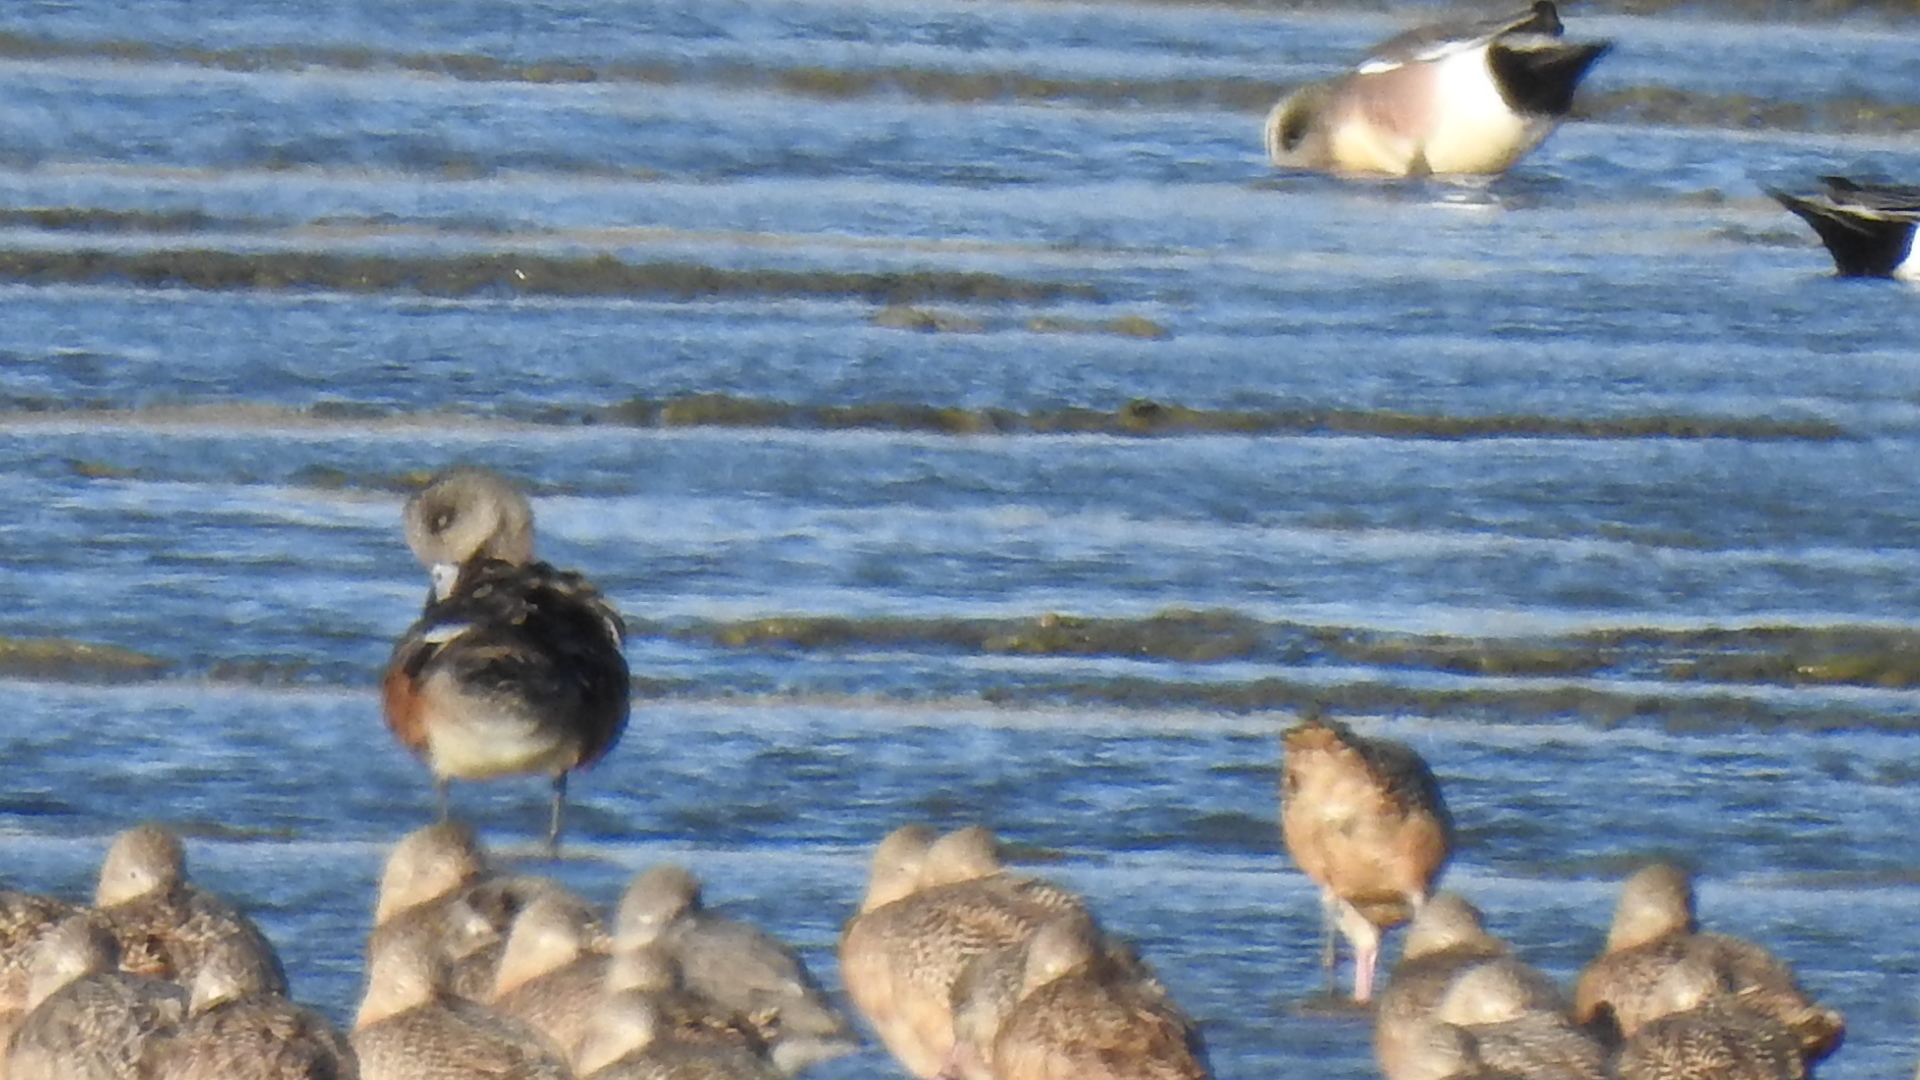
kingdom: Animalia
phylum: Chordata
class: Aves
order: Anseriformes
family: Anatidae
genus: Mareca
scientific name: Mareca americana
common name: American wigeon
